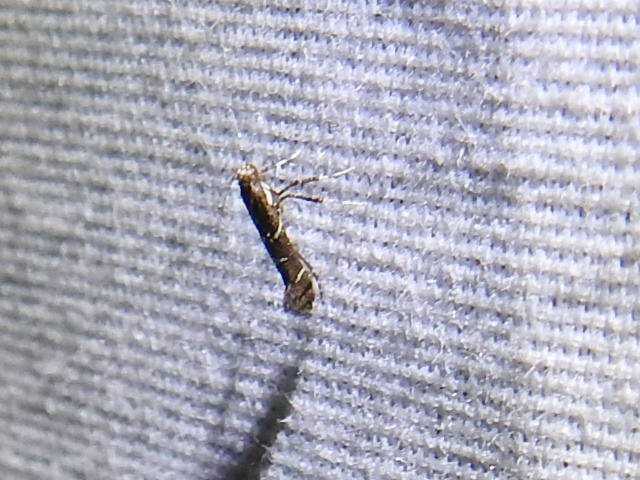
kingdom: Animalia
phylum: Arthropoda
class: Insecta
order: Lepidoptera
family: Gracillariidae
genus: Caloptilia
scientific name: Caloptilia triadicae
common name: Tallow leaf roller
